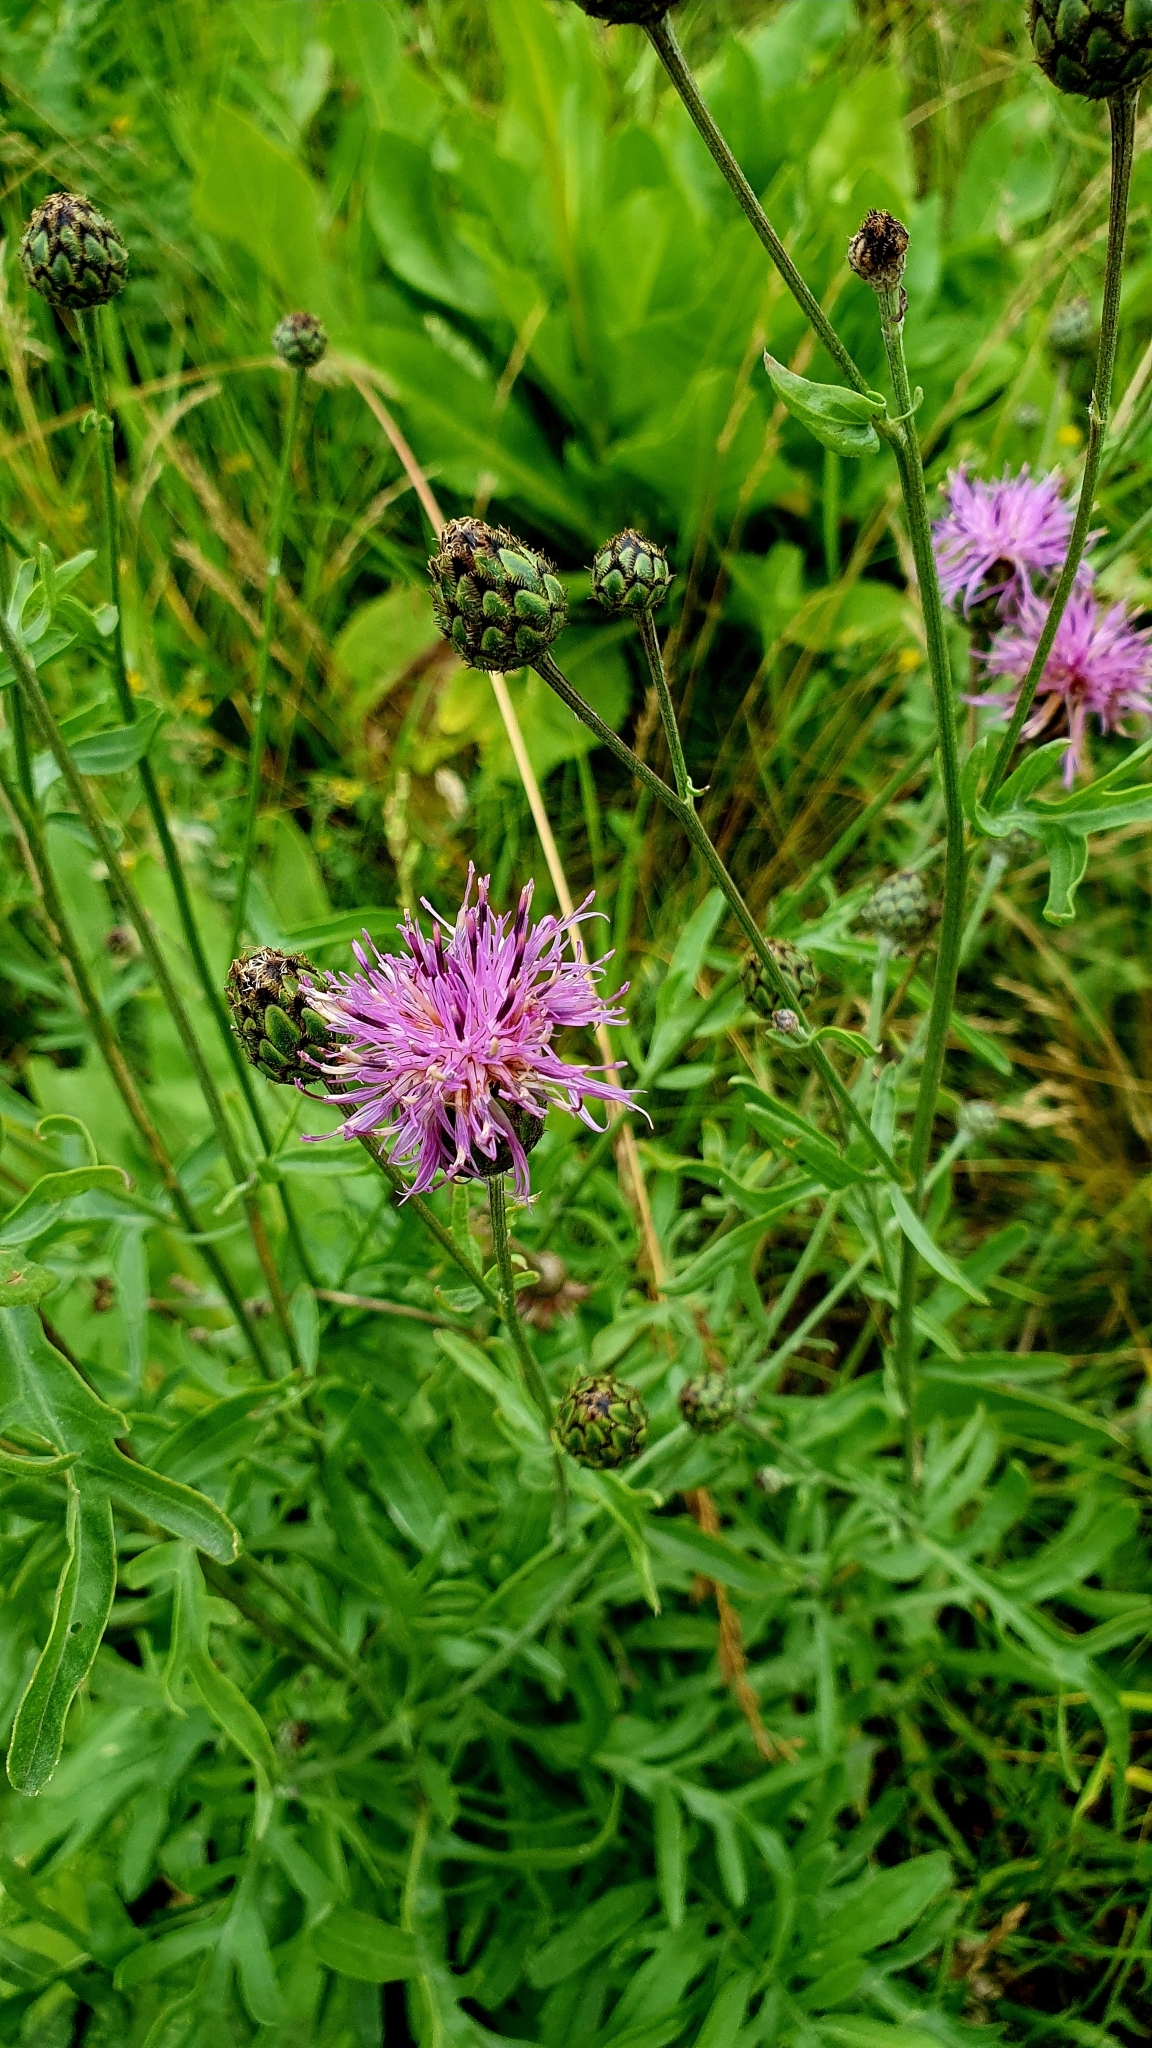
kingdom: Plantae
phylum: Tracheophyta
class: Magnoliopsida
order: Asterales
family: Asteraceae
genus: Centaurea
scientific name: Centaurea scabiosa
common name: Greater knapweed
